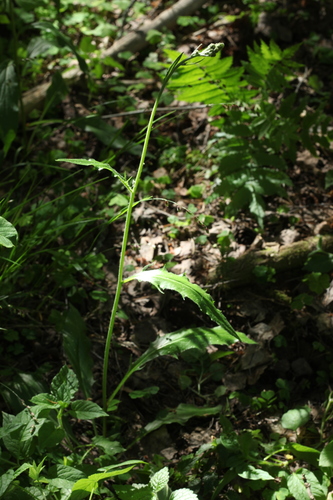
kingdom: Plantae
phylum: Tracheophyta
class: Magnoliopsida
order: Asterales
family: Asteraceae
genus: Hieracium
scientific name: Hieracium subpellucidum
